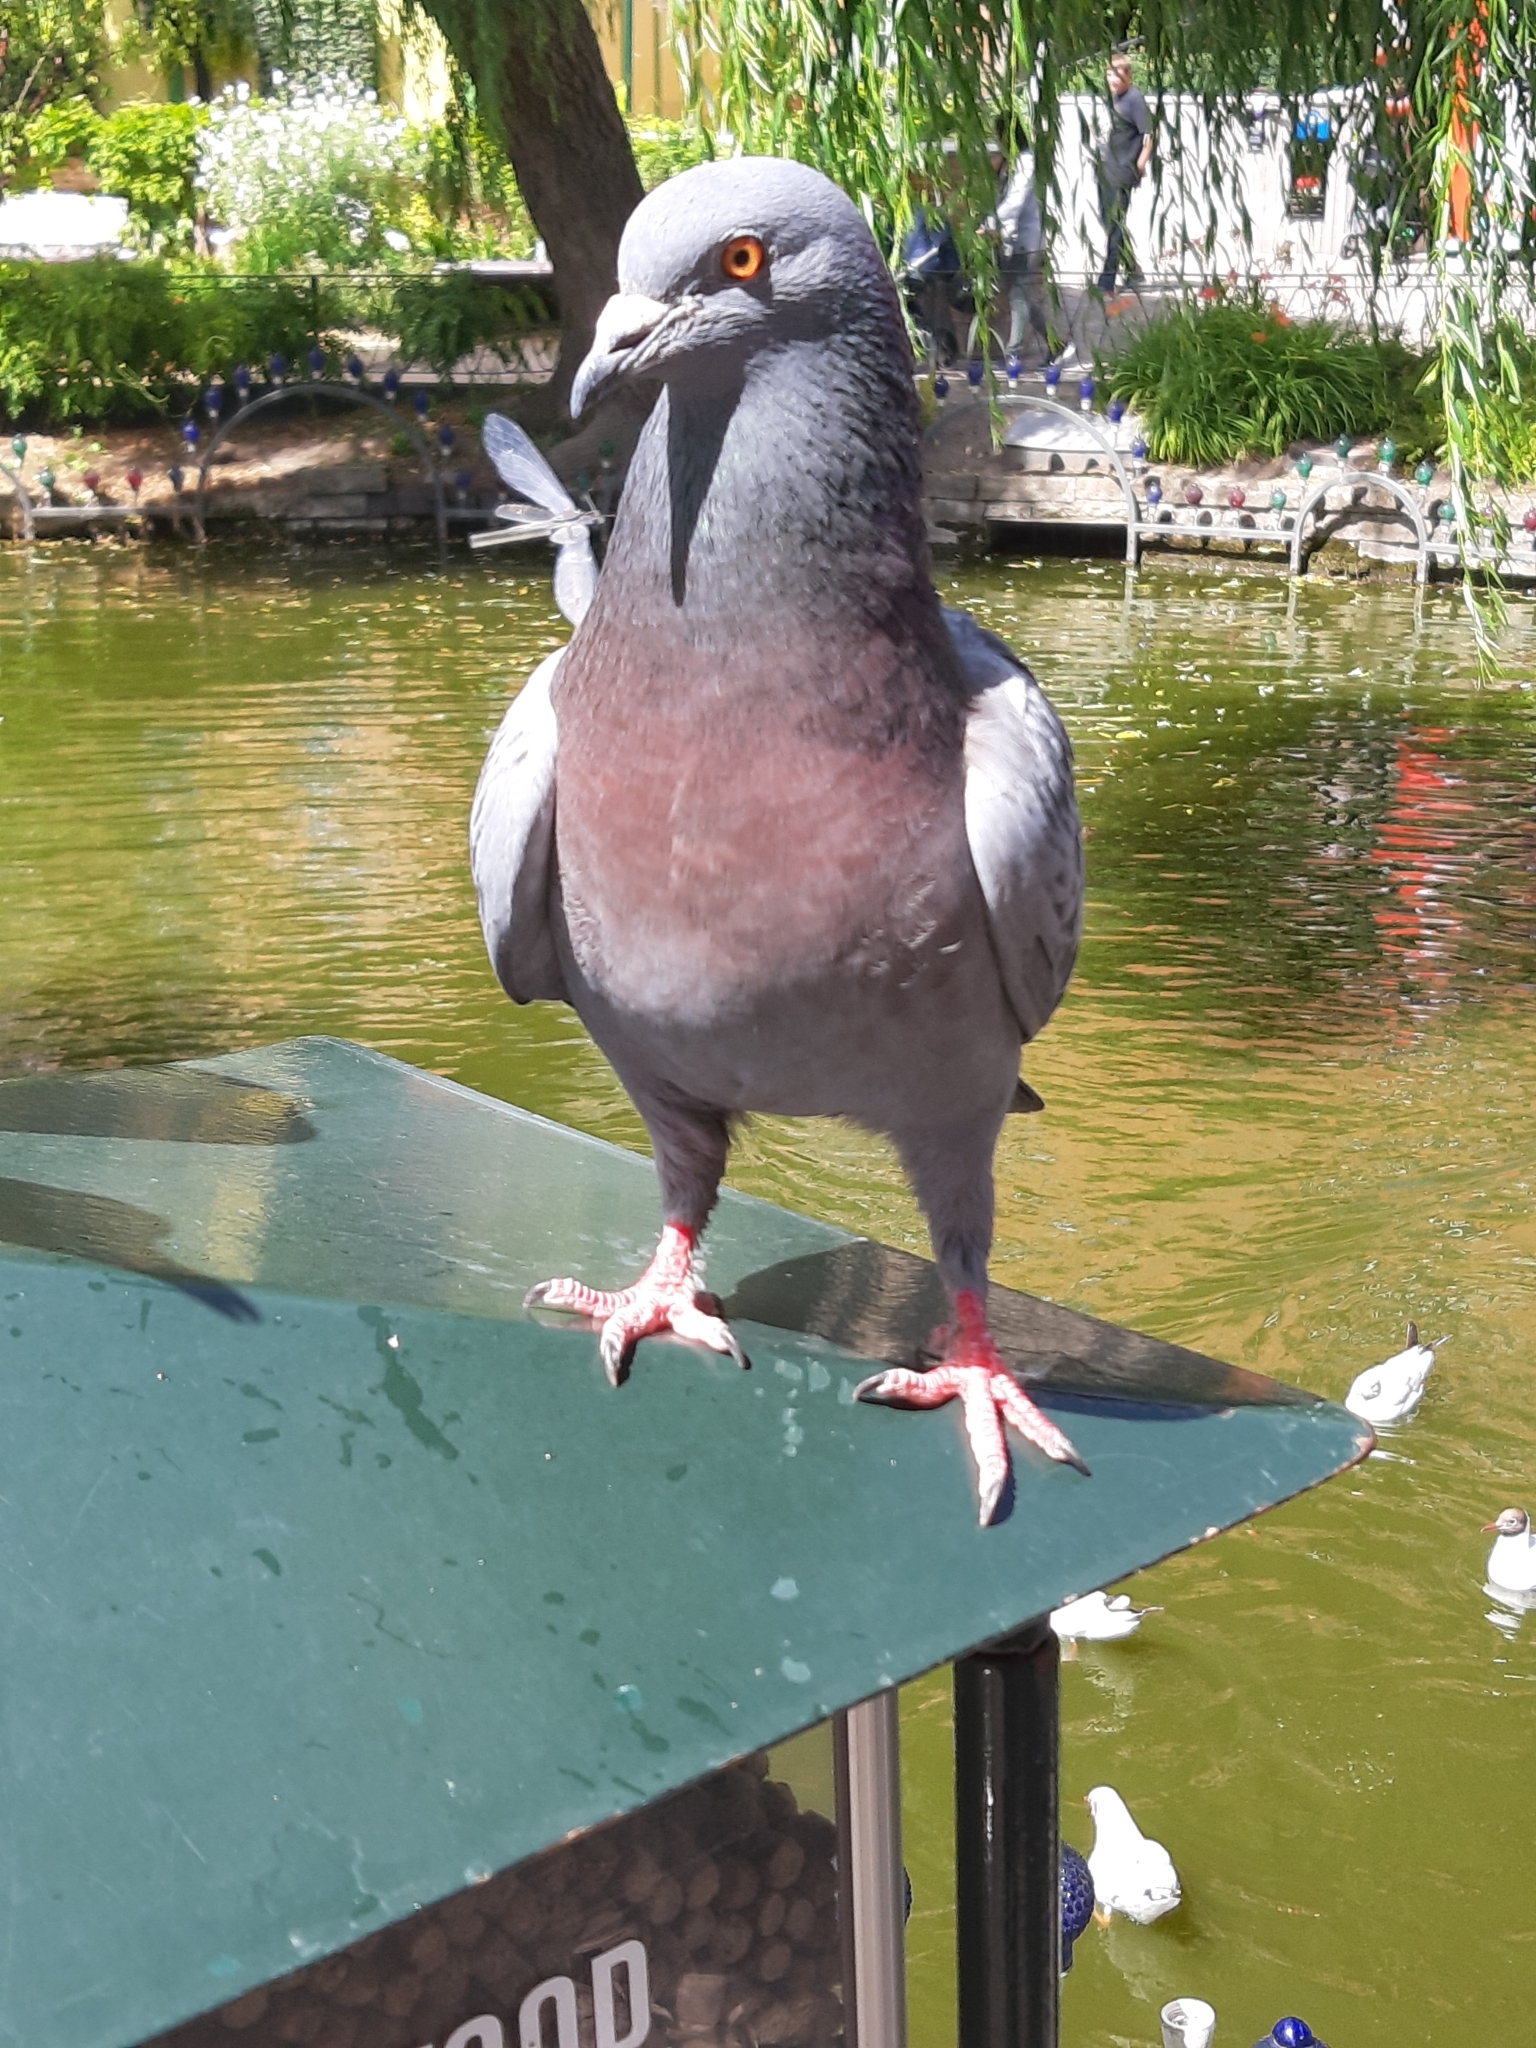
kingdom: Animalia
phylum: Chordata
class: Aves
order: Columbiformes
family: Columbidae
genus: Columba
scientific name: Columba livia
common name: Rock pigeon
